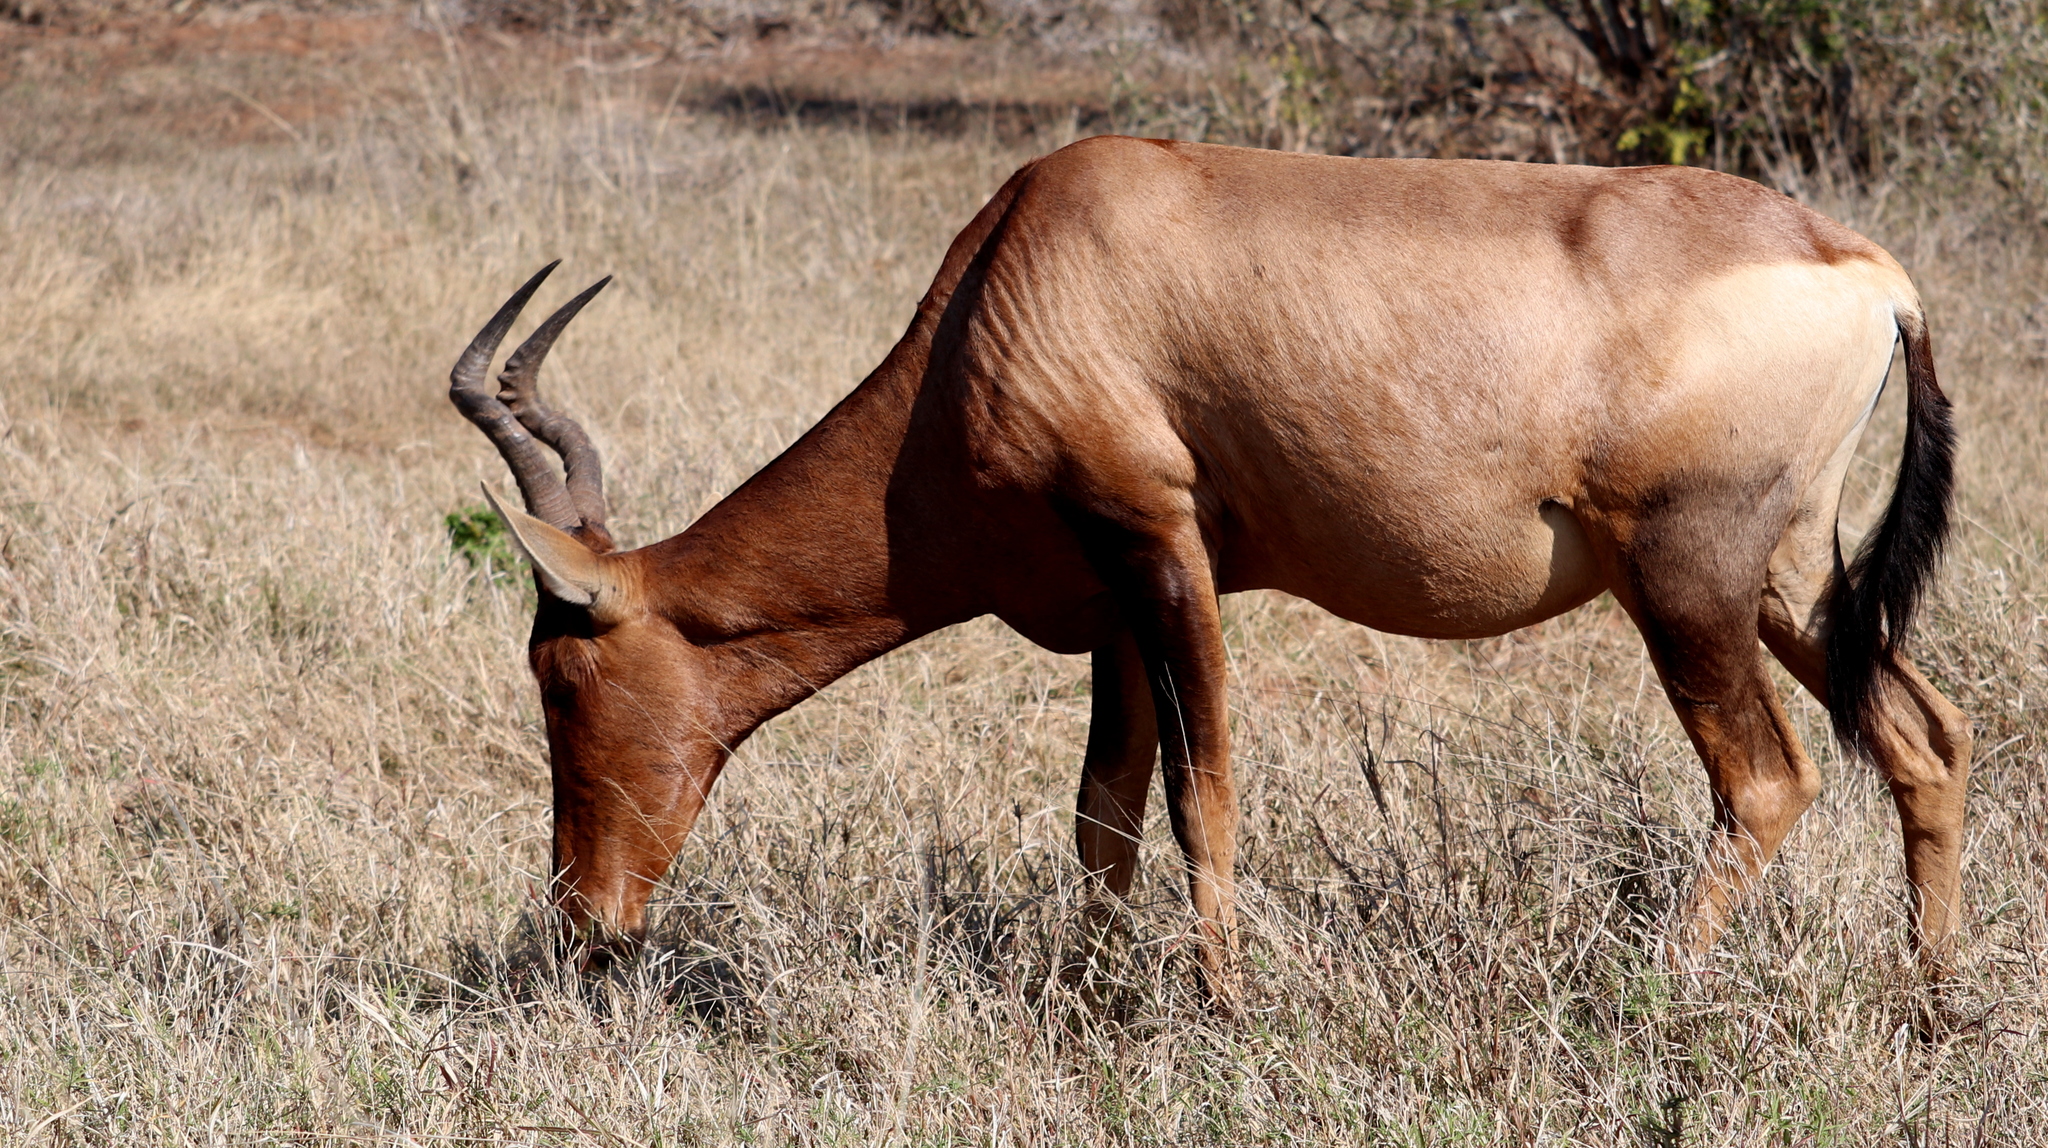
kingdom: Animalia
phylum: Chordata
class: Mammalia
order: Artiodactyla
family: Bovidae
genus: Alcelaphus
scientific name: Alcelaphus caama
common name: Red hartebeest
